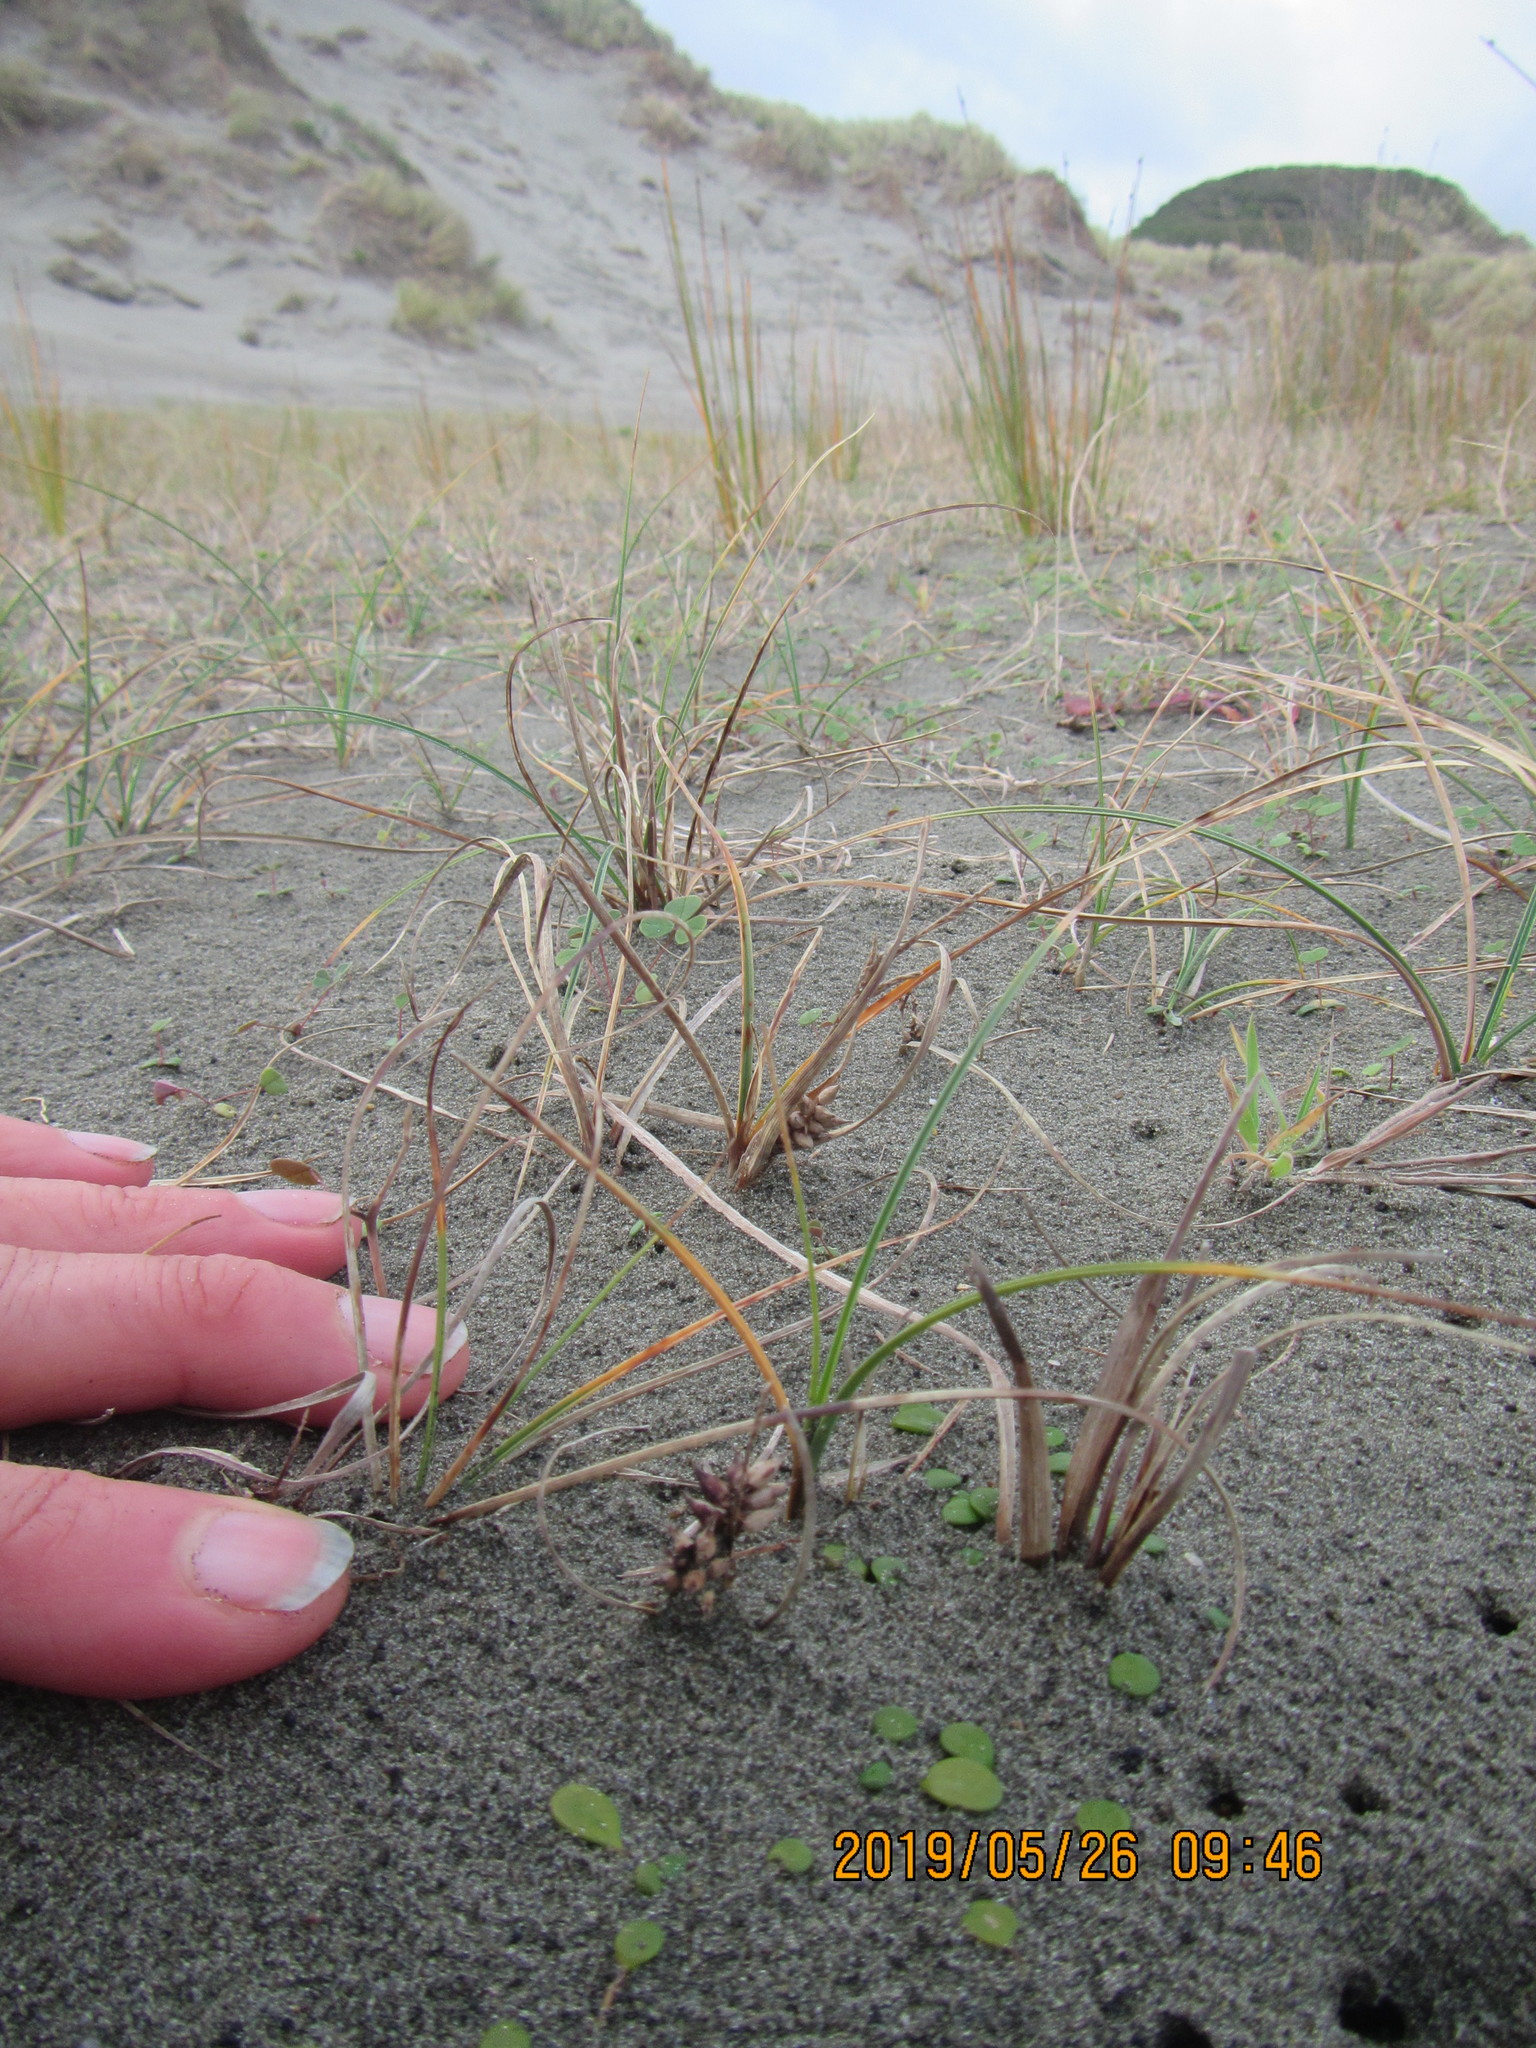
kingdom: Plantae
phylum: Tracheophyta
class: Liliopsida
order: Poales
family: Cyperaceae
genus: Carex
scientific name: Carex pumila
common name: Dwarf sedge
